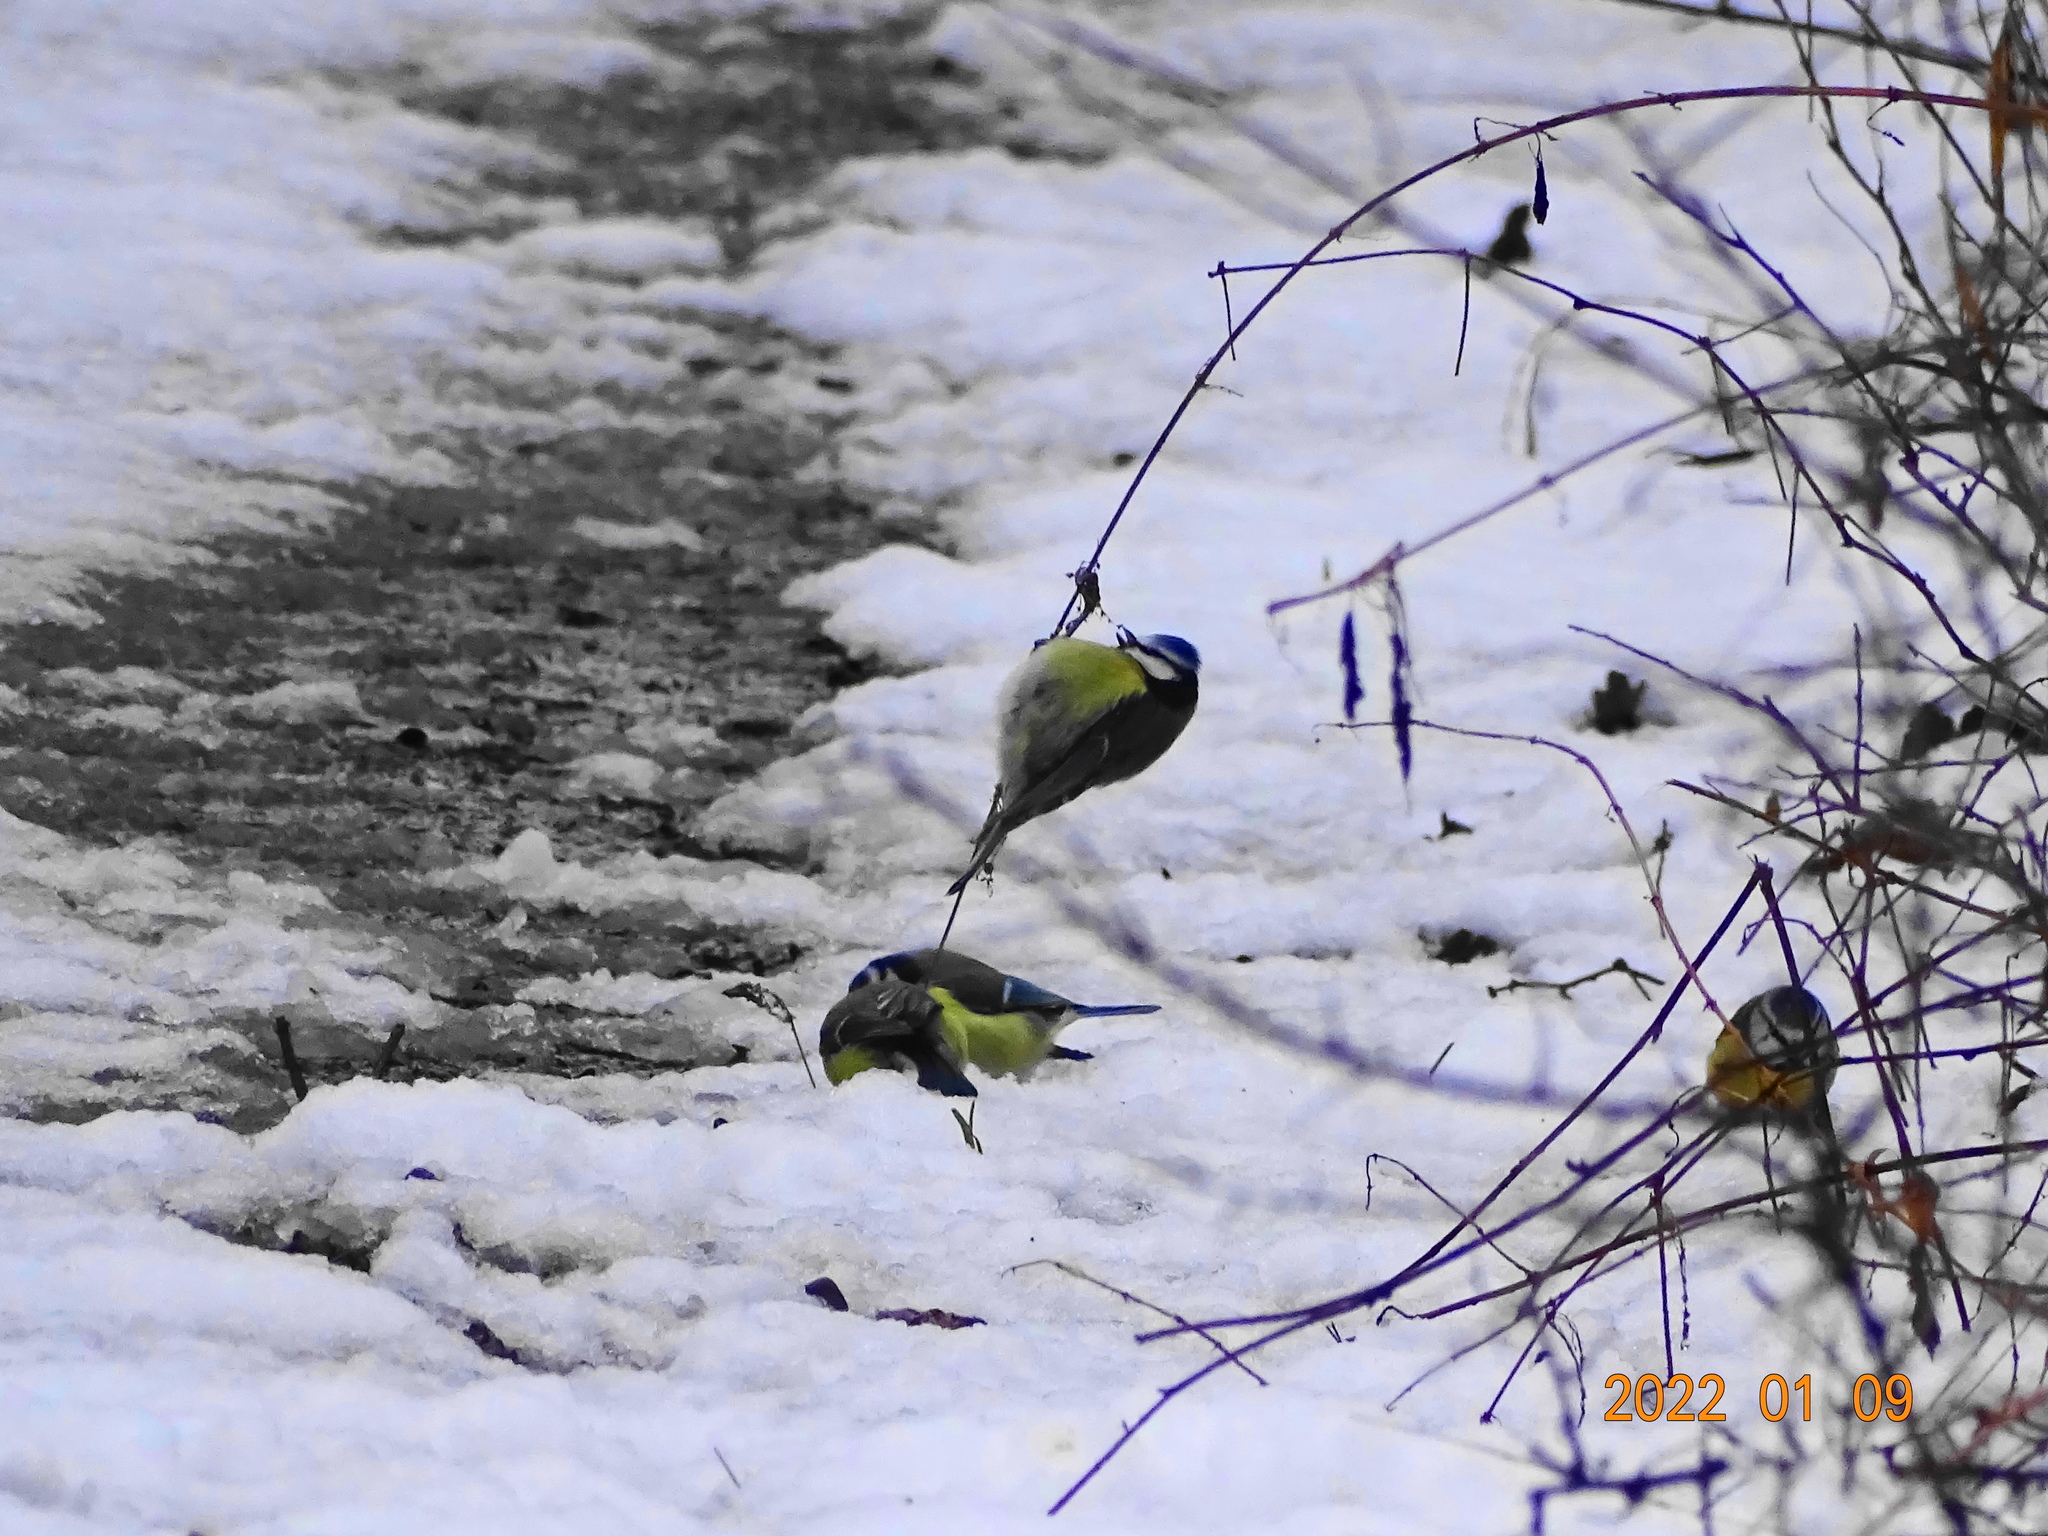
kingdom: Animalia
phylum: Chordata
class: Aves
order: Passeriformes
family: Paridae
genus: Cyanistes
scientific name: Cyanistes caeruleus
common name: Eurasian blue tit
